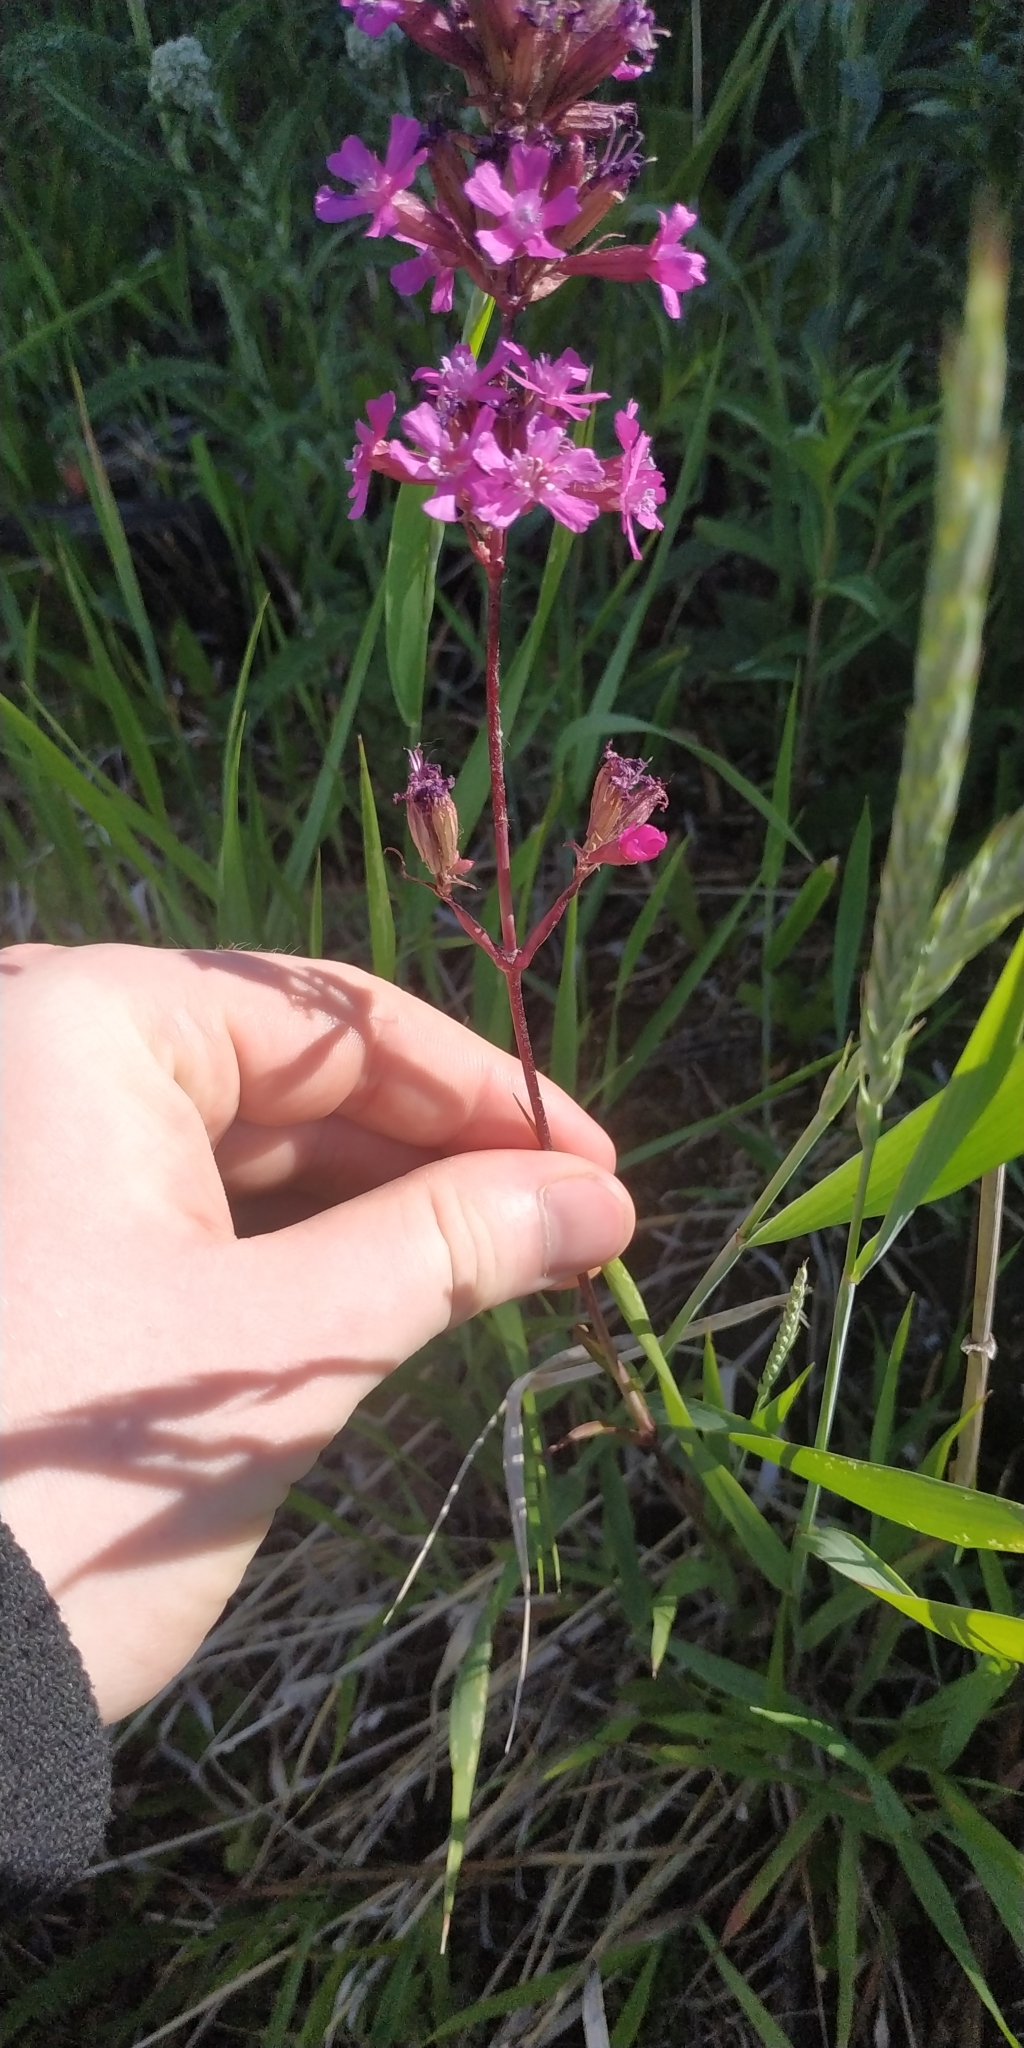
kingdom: Plantae
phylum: Tracheophyta
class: Magnoliopsida
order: Caryophyllales
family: Caryophyllaceae
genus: Viscaria
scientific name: Viscaria vulgaris
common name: Clammy campion
